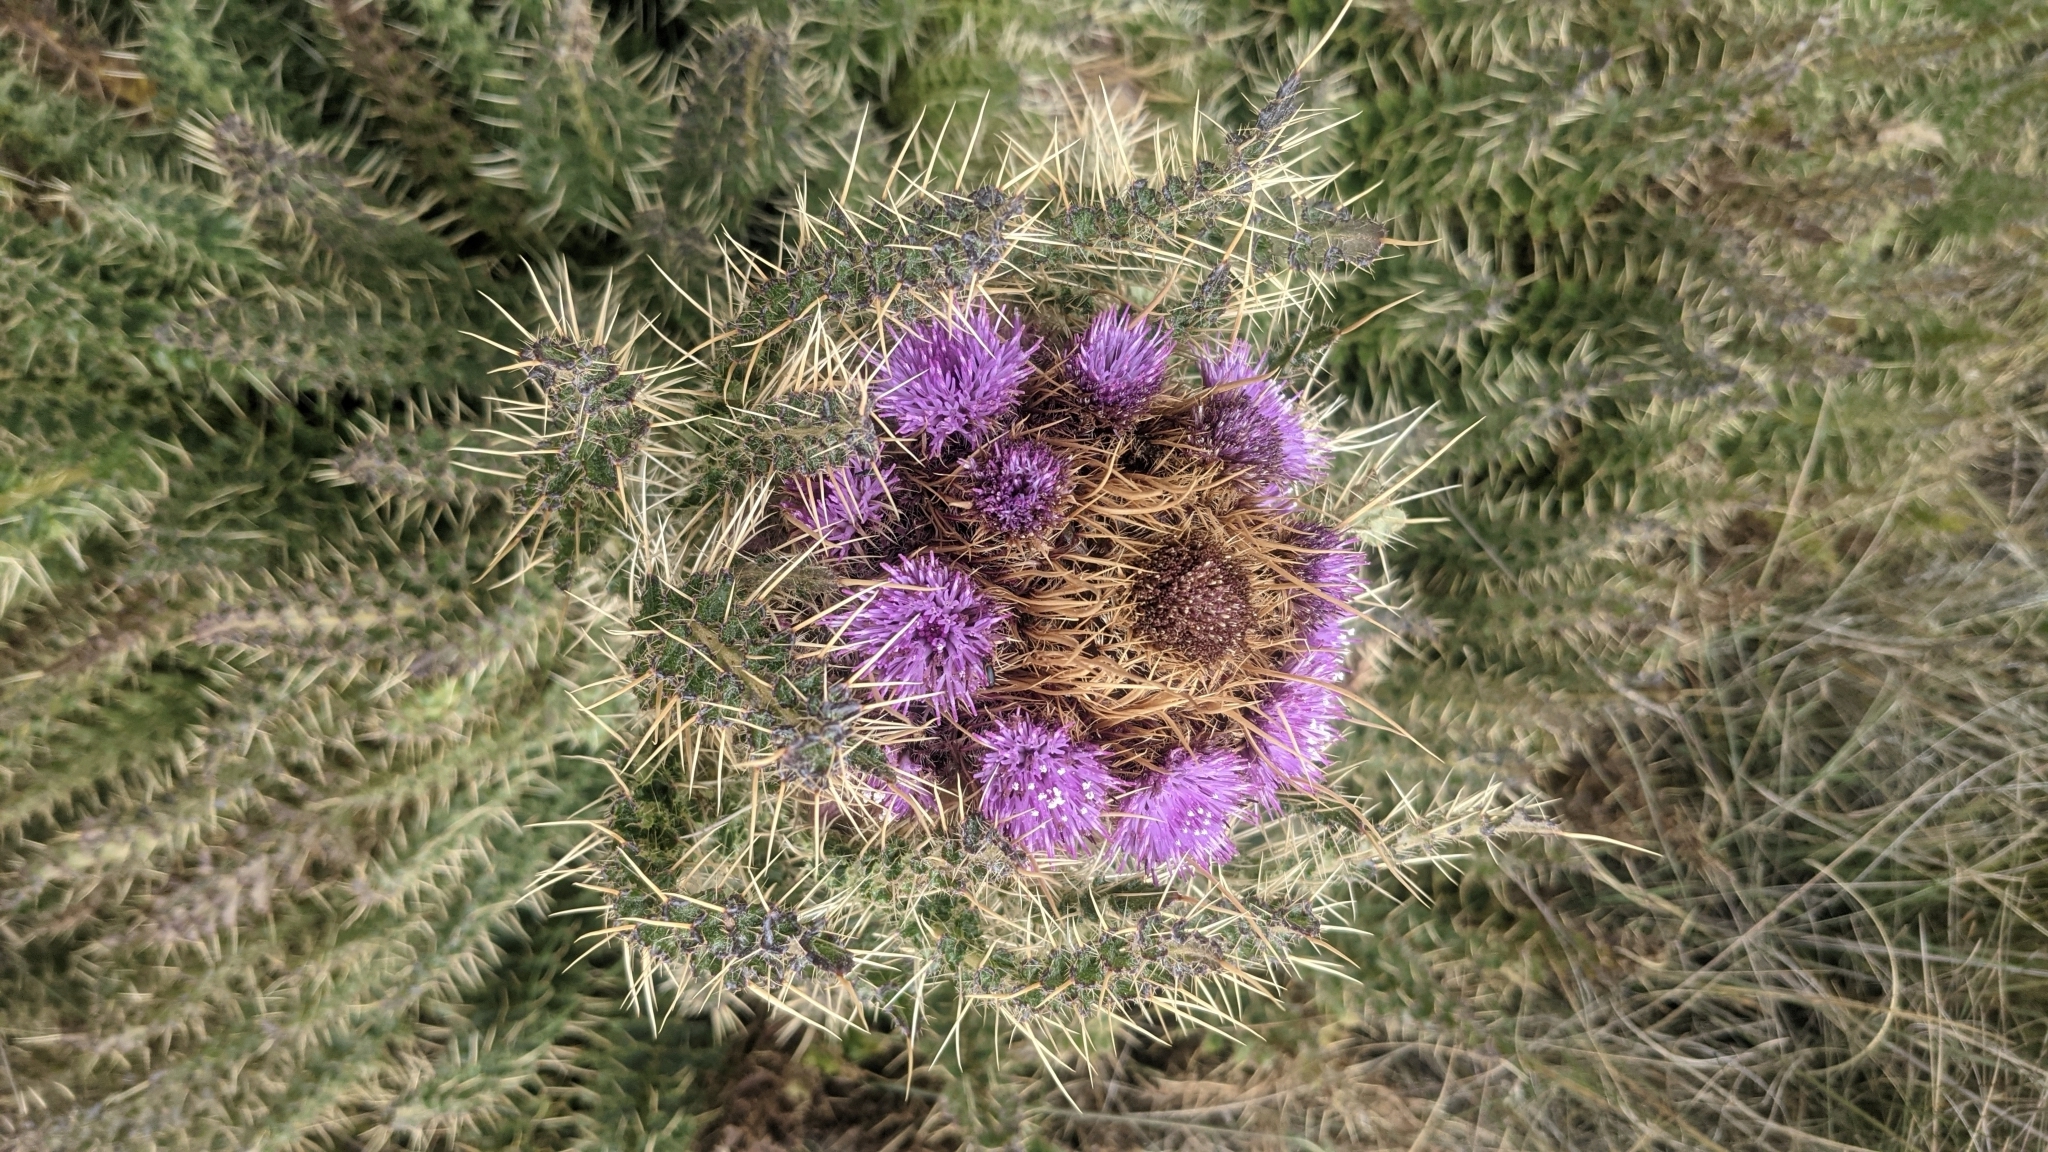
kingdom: Plantae
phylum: Tracheophyta
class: Magnoliopsida
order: Asterales
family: Asteraceae
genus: Carduus
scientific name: Carduus keniensis
